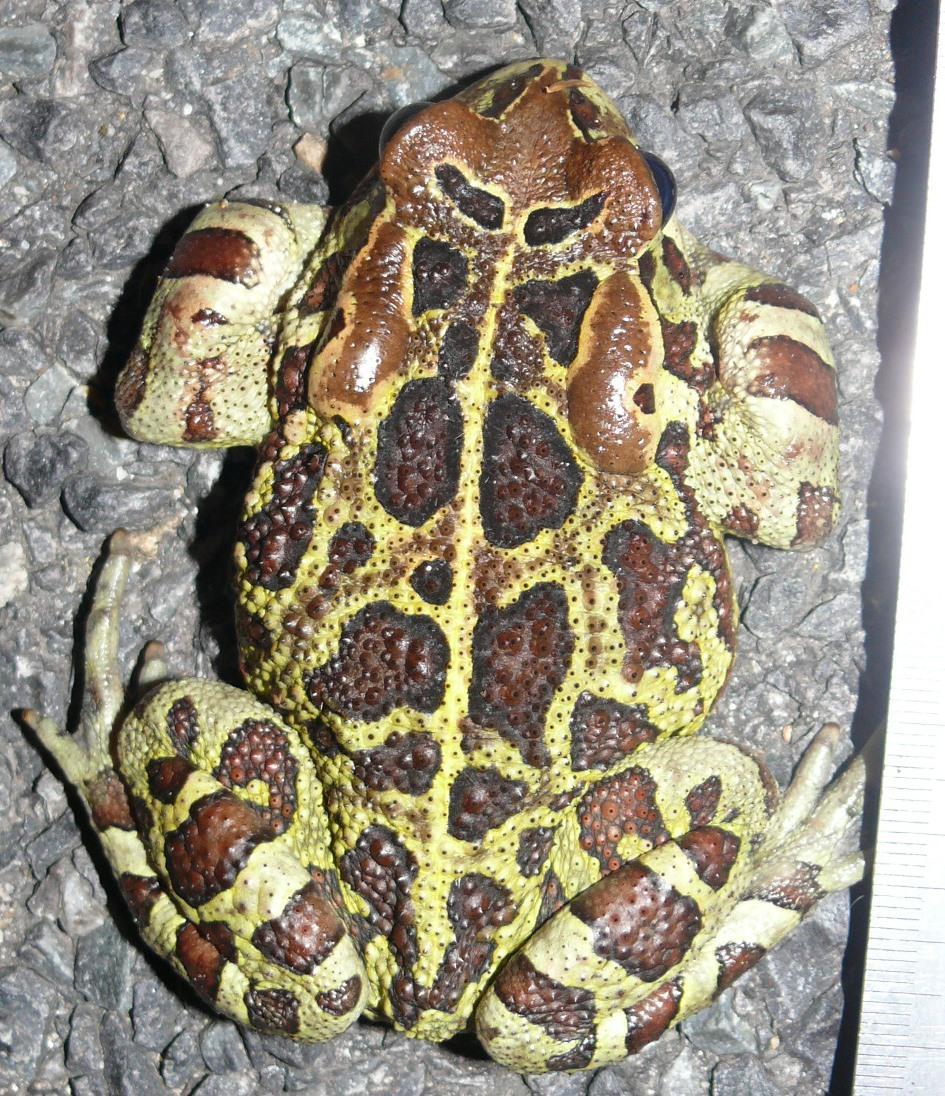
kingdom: Animalia
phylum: Chordata
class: Amphibia
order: Anura
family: Bufonidae
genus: Sclerophrys
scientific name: Sclerophrys pantherina
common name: Panther toad
